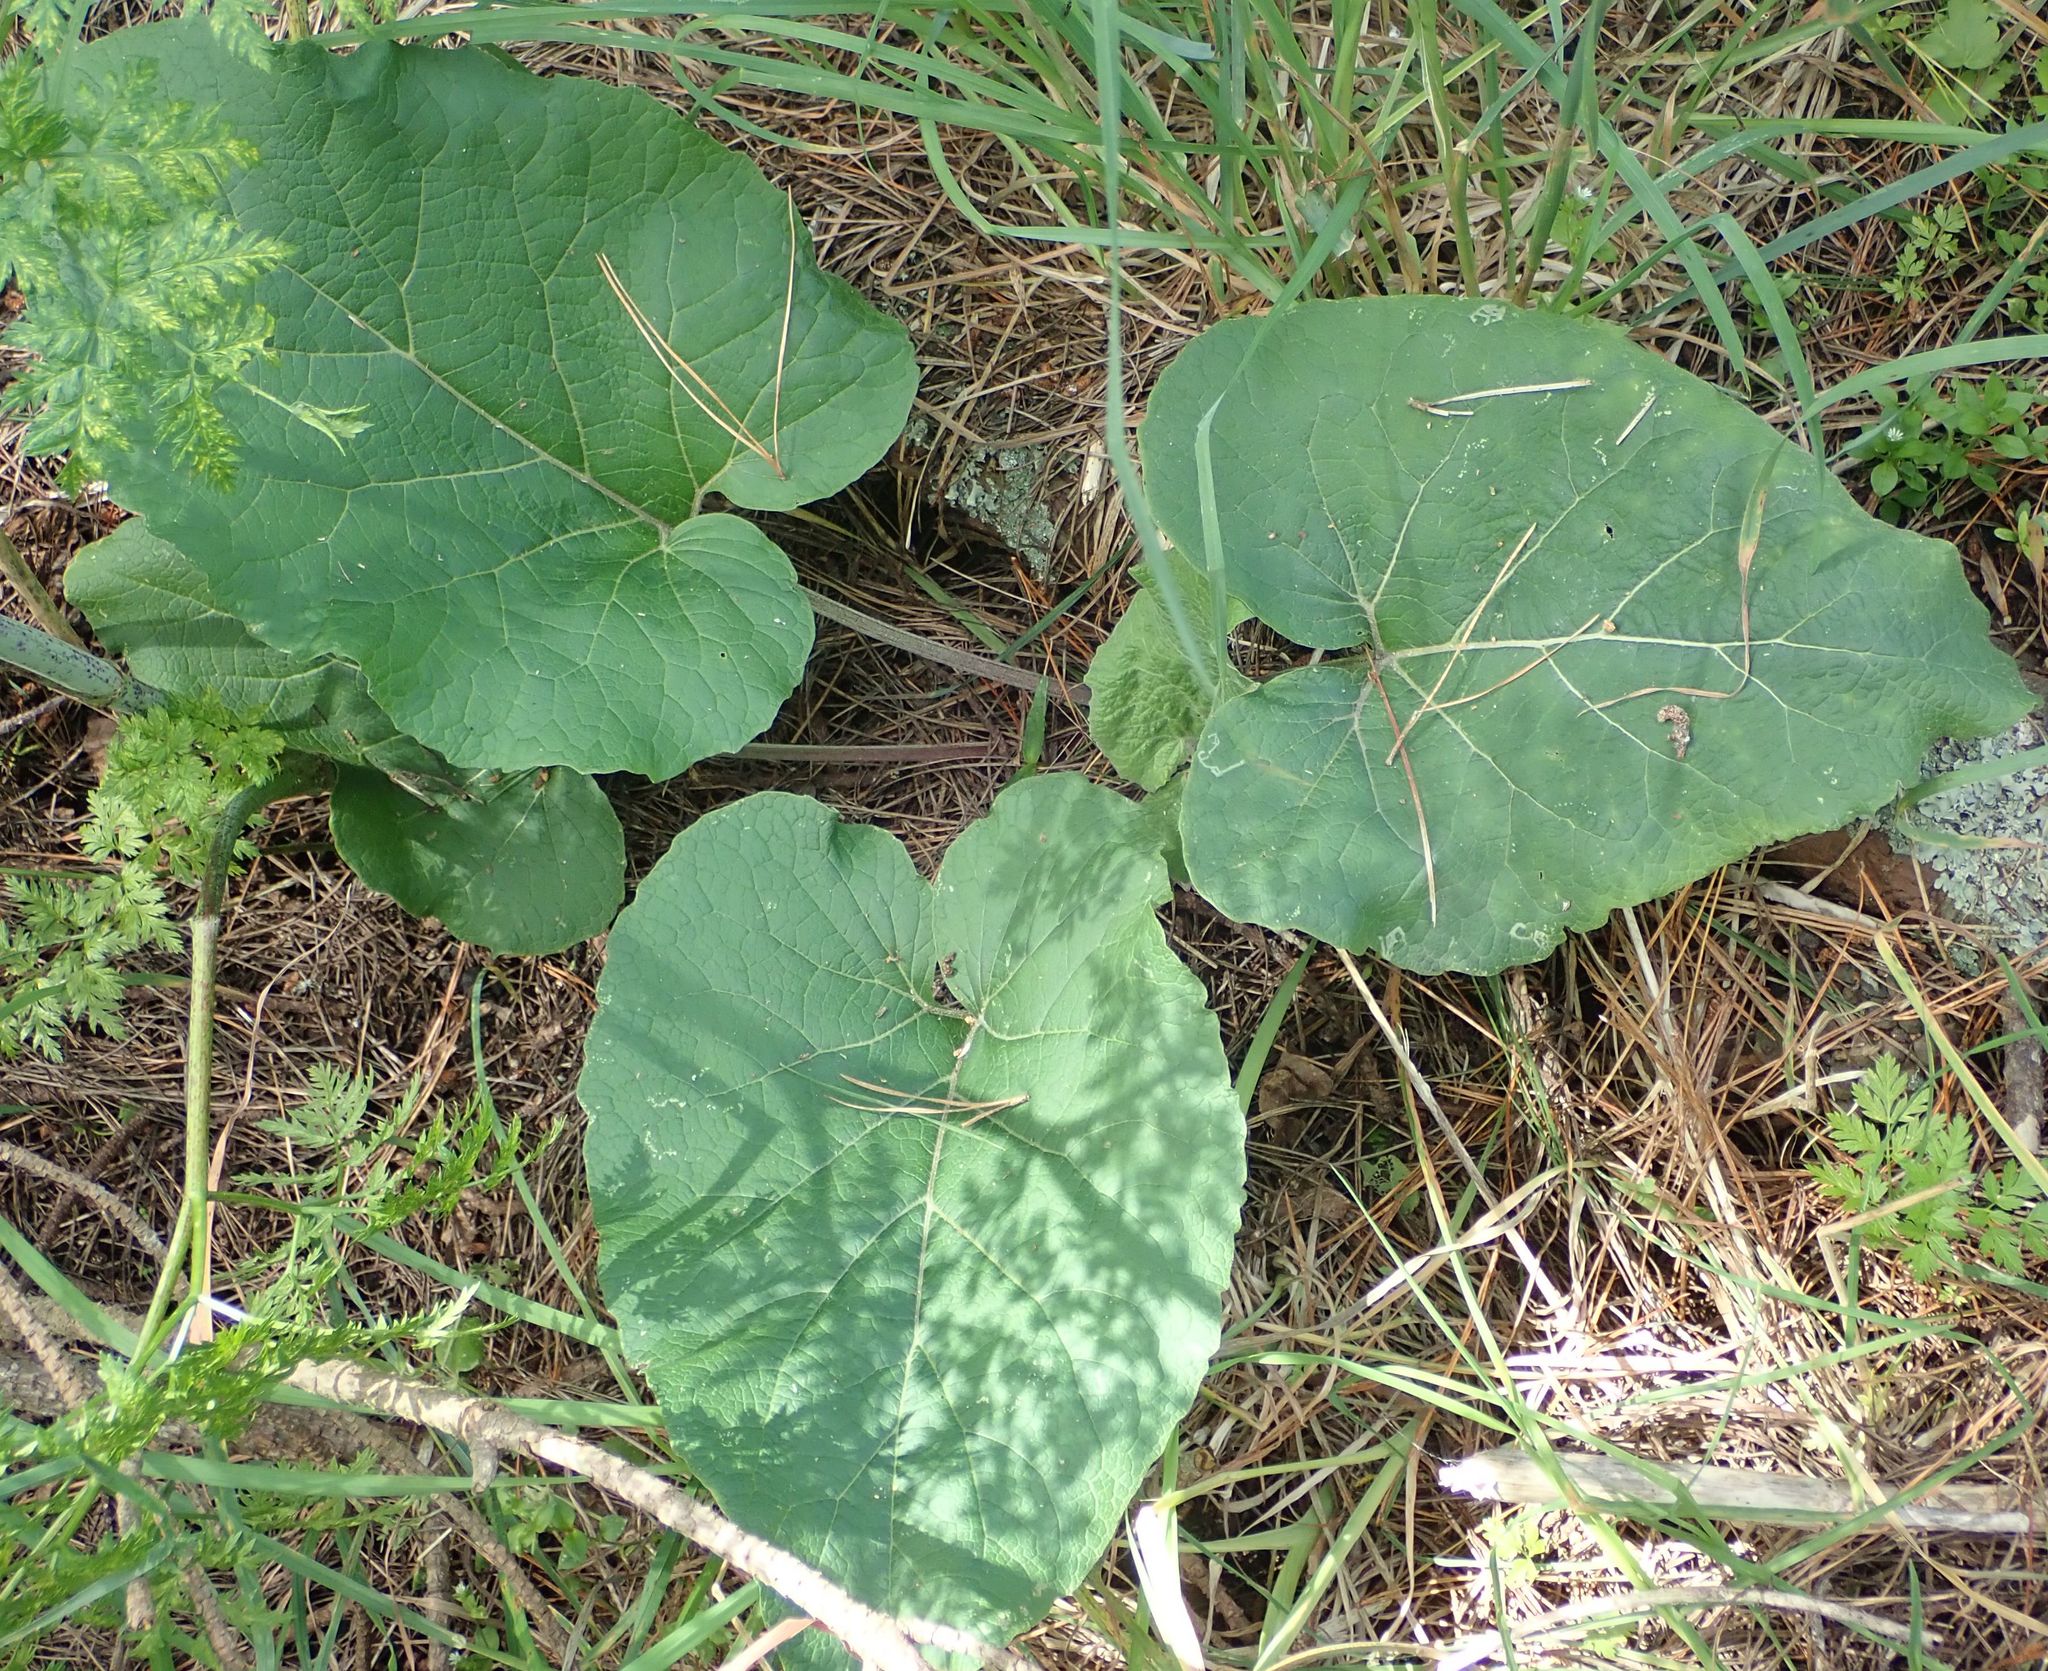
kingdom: Plantae
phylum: Tracheophyta
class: Magnoliopsida
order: Asterales
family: Asteraceae
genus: Arctium
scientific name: Arctium minus
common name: Lesser burdock
